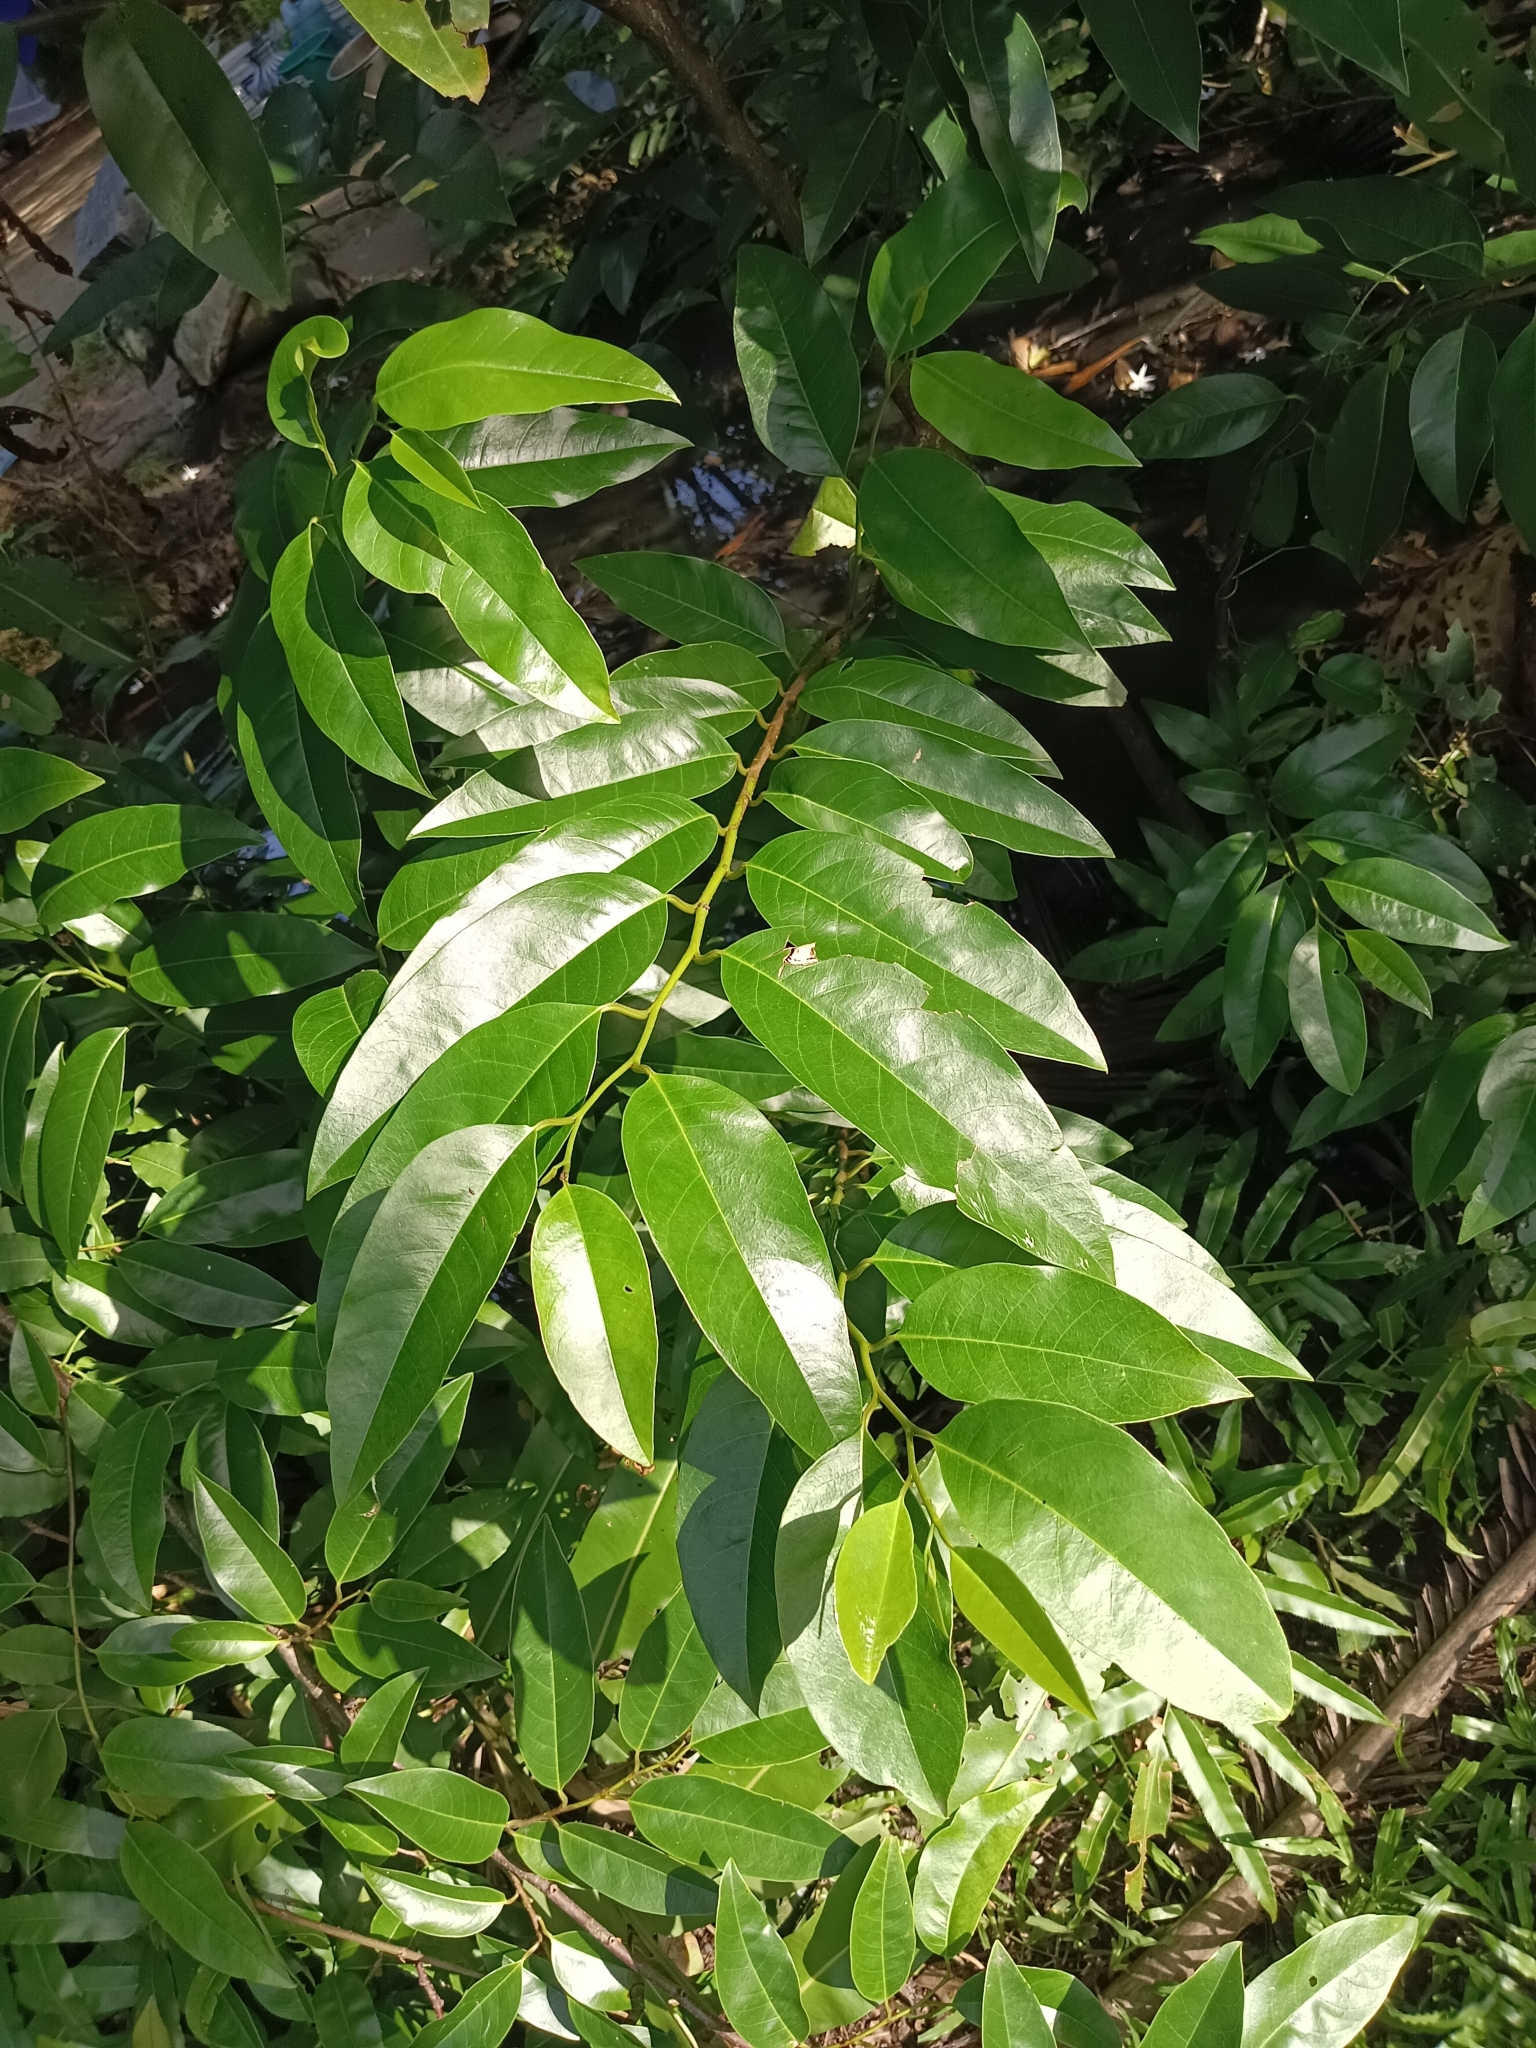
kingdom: Plantae
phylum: Tracheophyta
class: Magnoliopsida
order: Magnoliales
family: Annonaceae
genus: Annona
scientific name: Annona glabra
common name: Monkey apple
